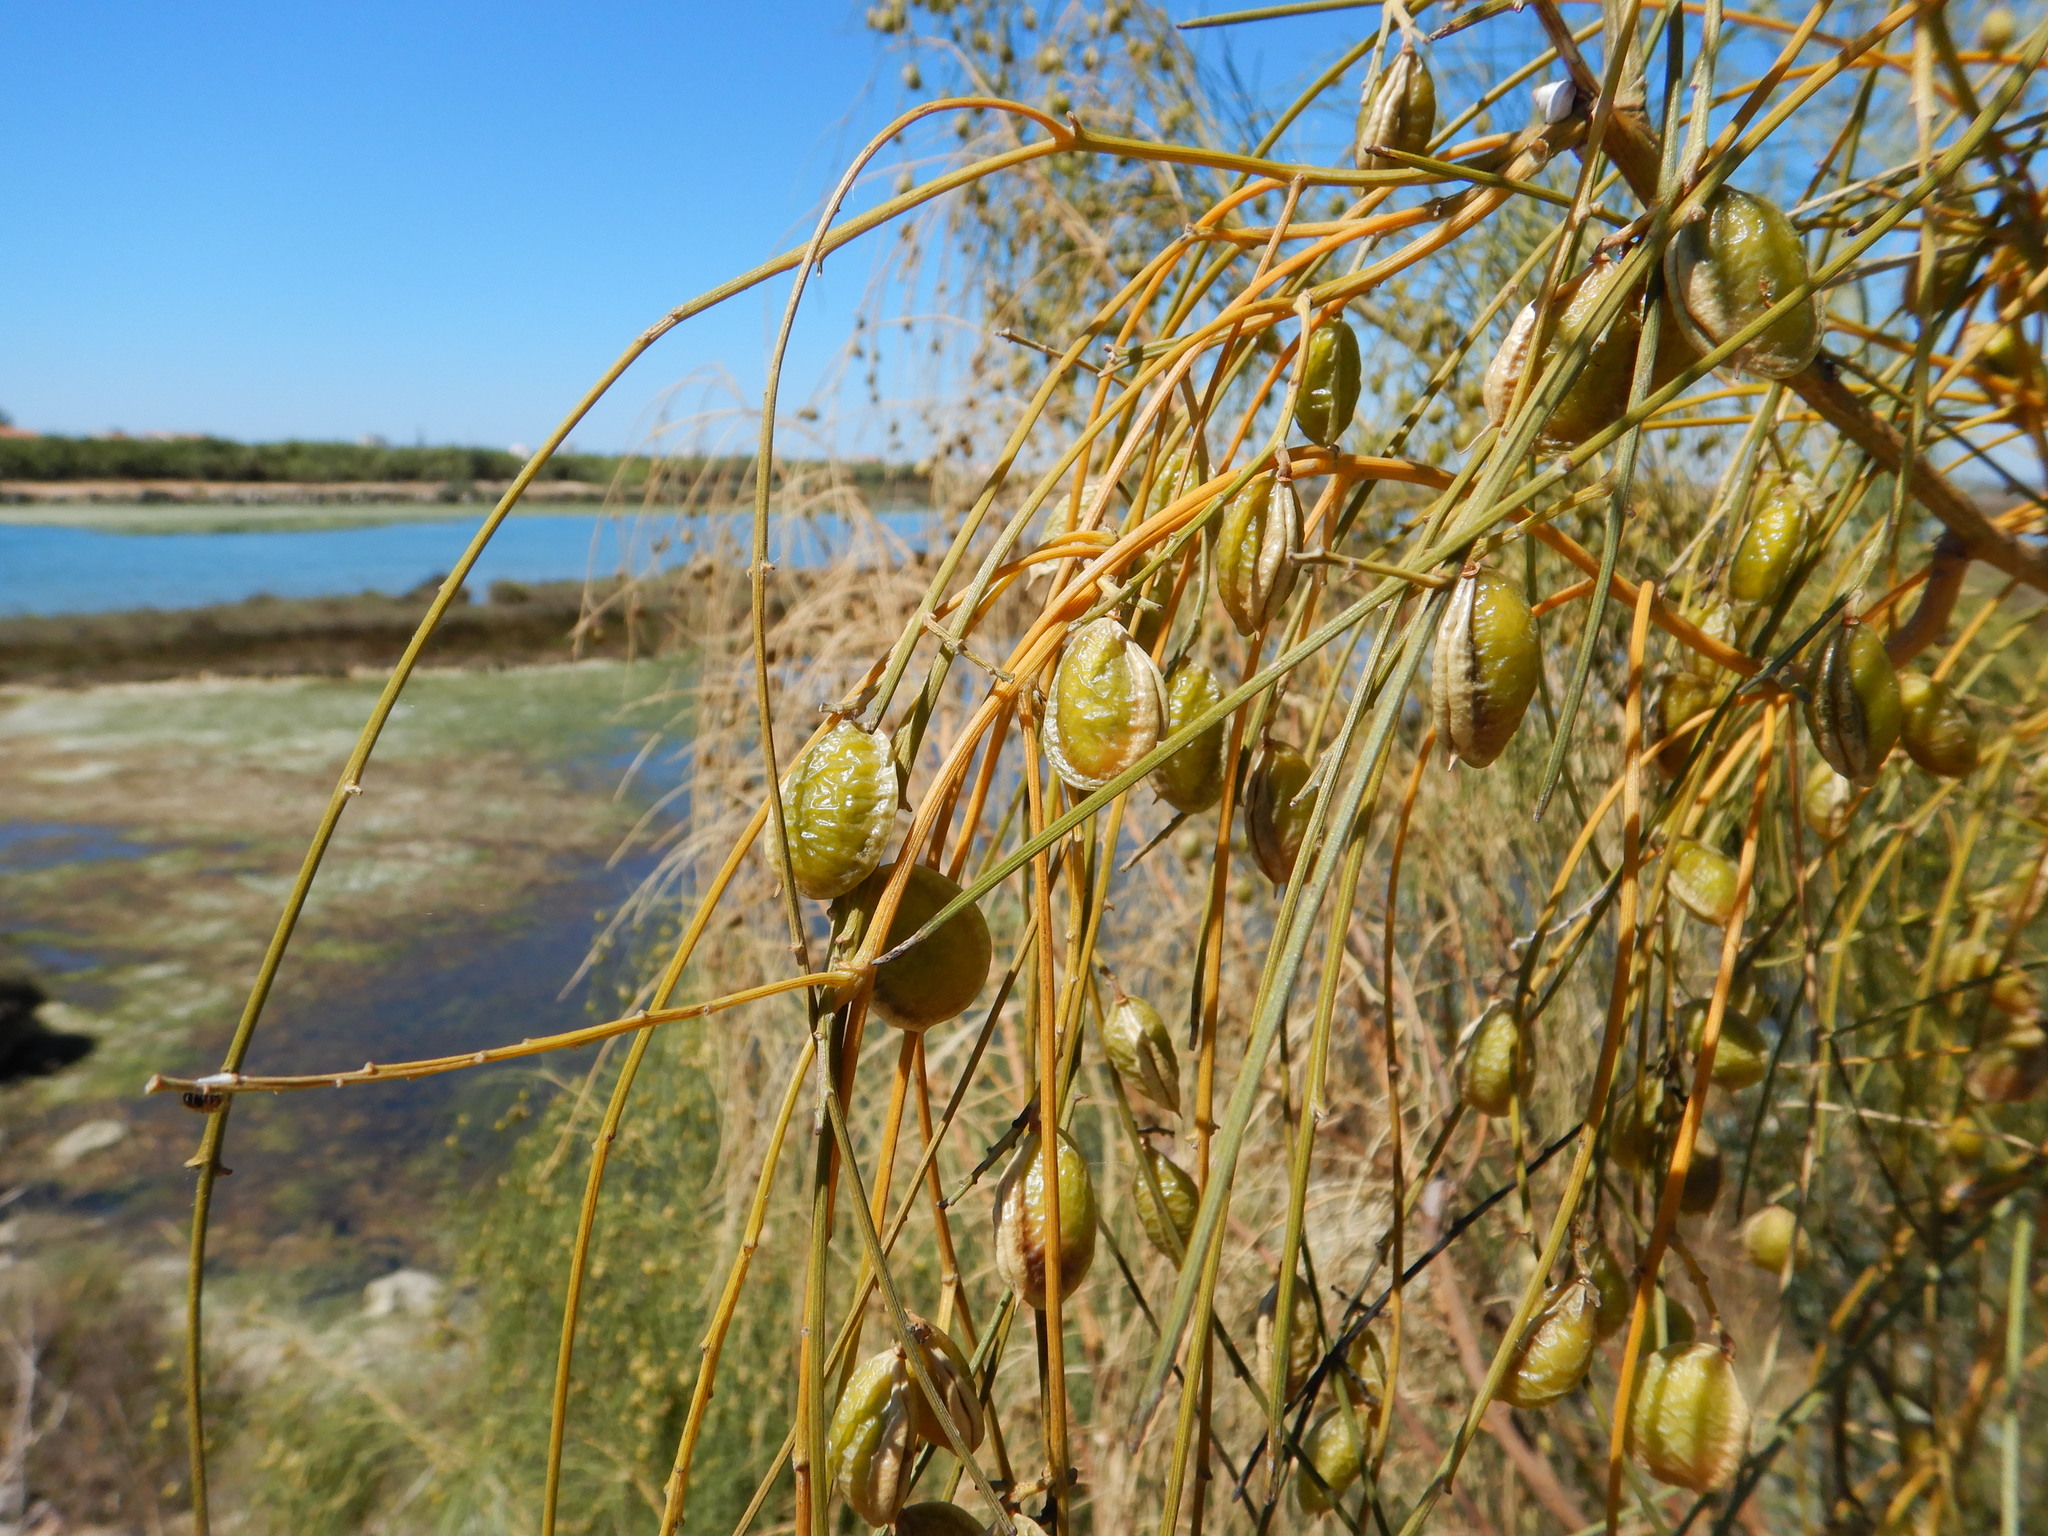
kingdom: Plantae
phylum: Tracheophyta
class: Magnoliopsida
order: Fabales
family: Fabaceae
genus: Retama
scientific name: Retama monosperma
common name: Bridal broom
